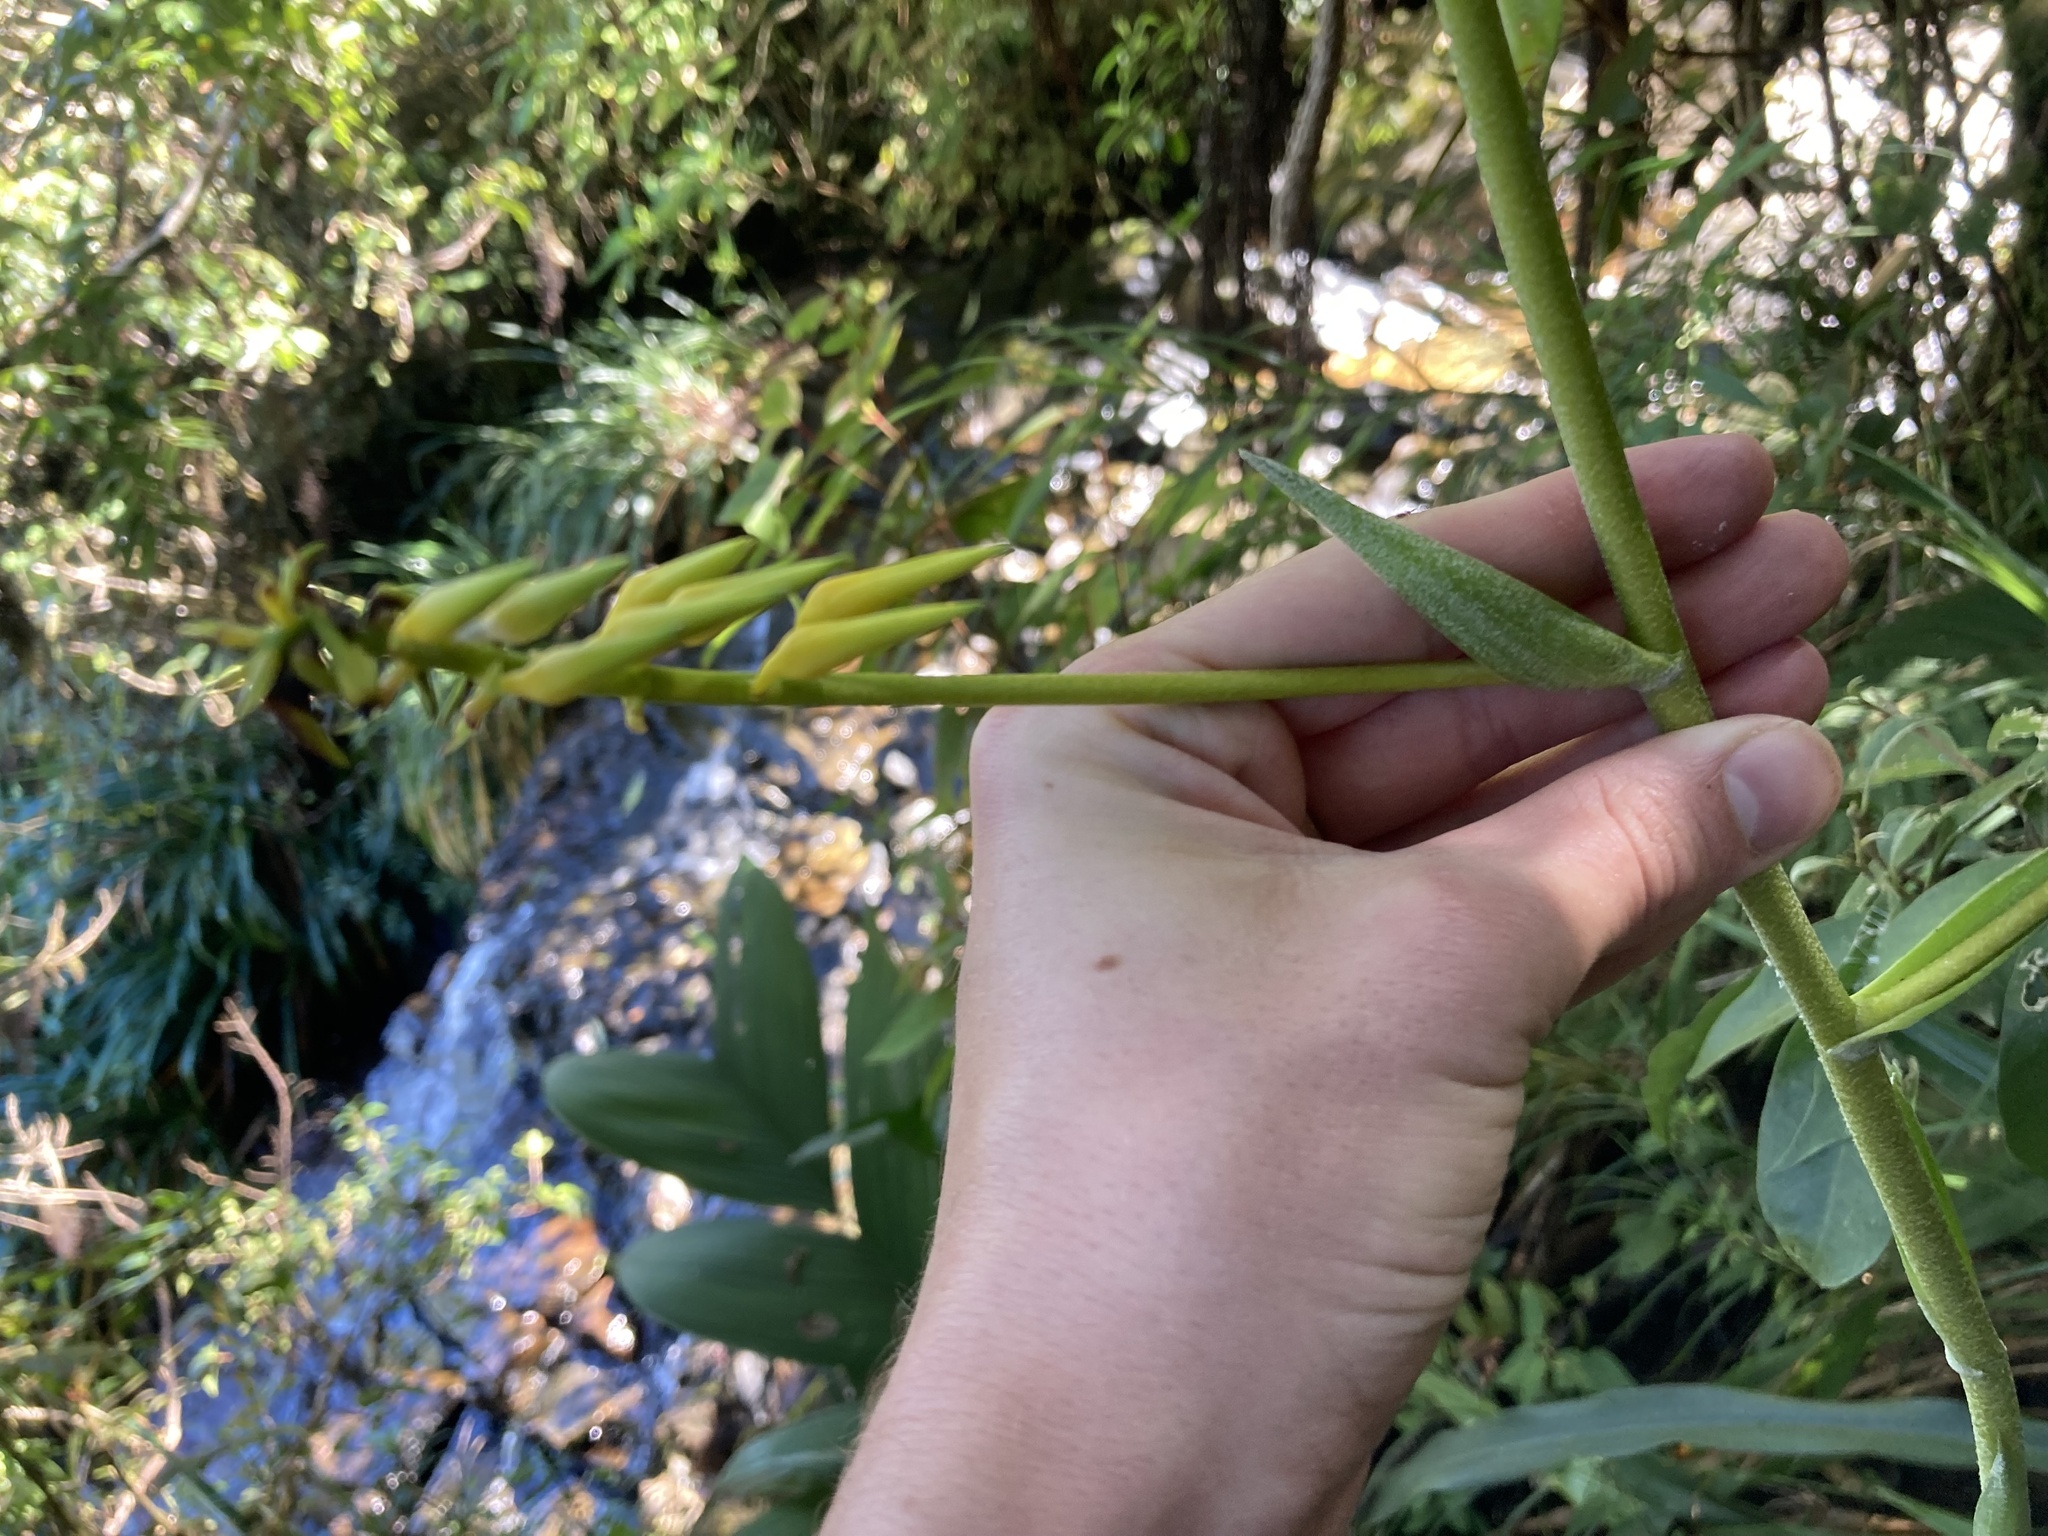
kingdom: Plantae
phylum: Tracheophyta
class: Liliopsida
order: Poales
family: Bromeliaceae
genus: Pitcairnia
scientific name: Pitcairnia wilburiana
